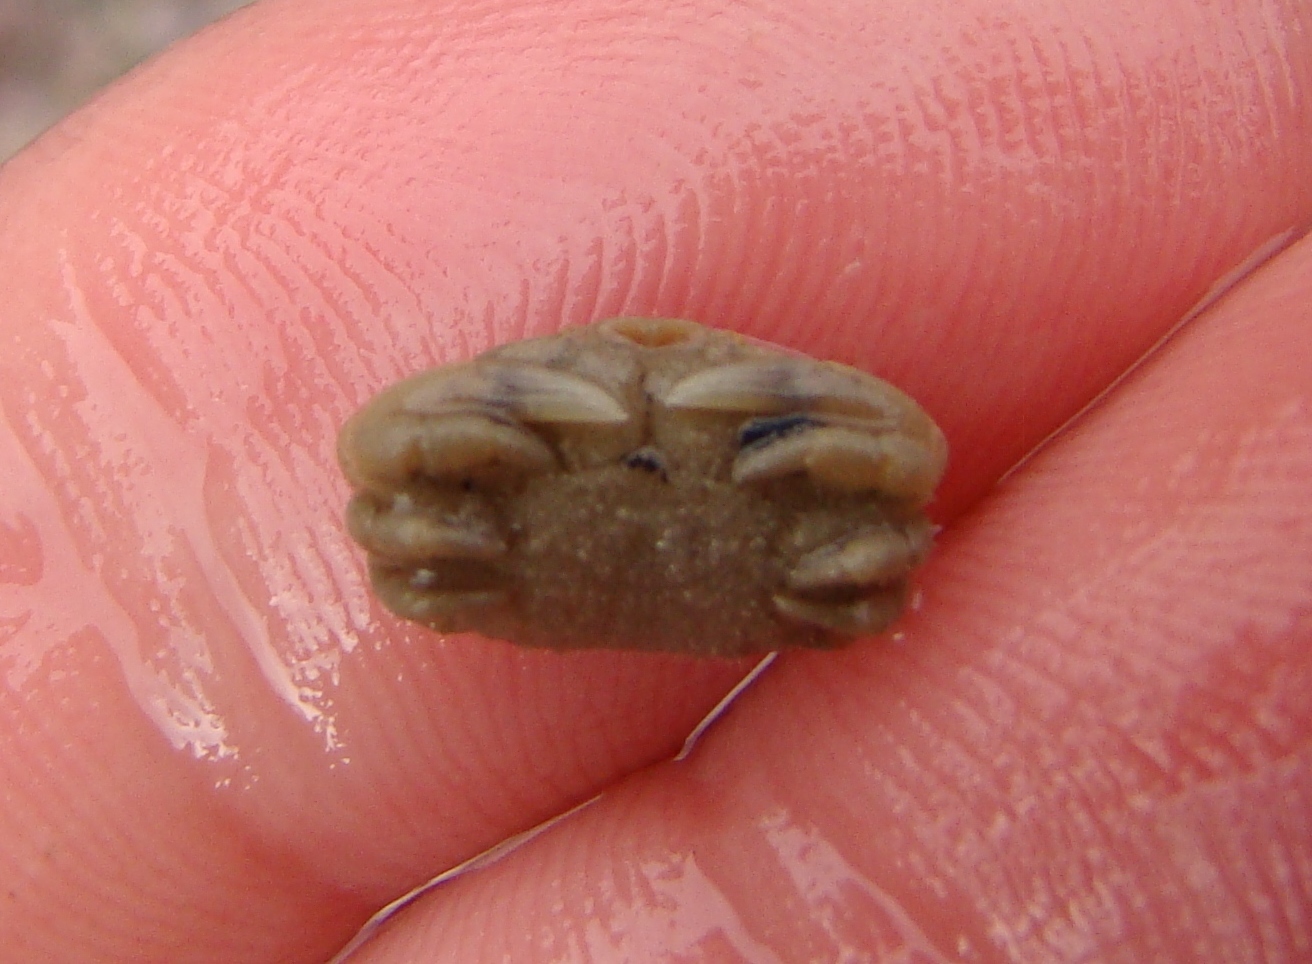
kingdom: Animalia
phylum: Arthropoda
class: Malacostraca
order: Decapoda
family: Heteroziidae
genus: Heterozius
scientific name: Heterozius rotundifrons
